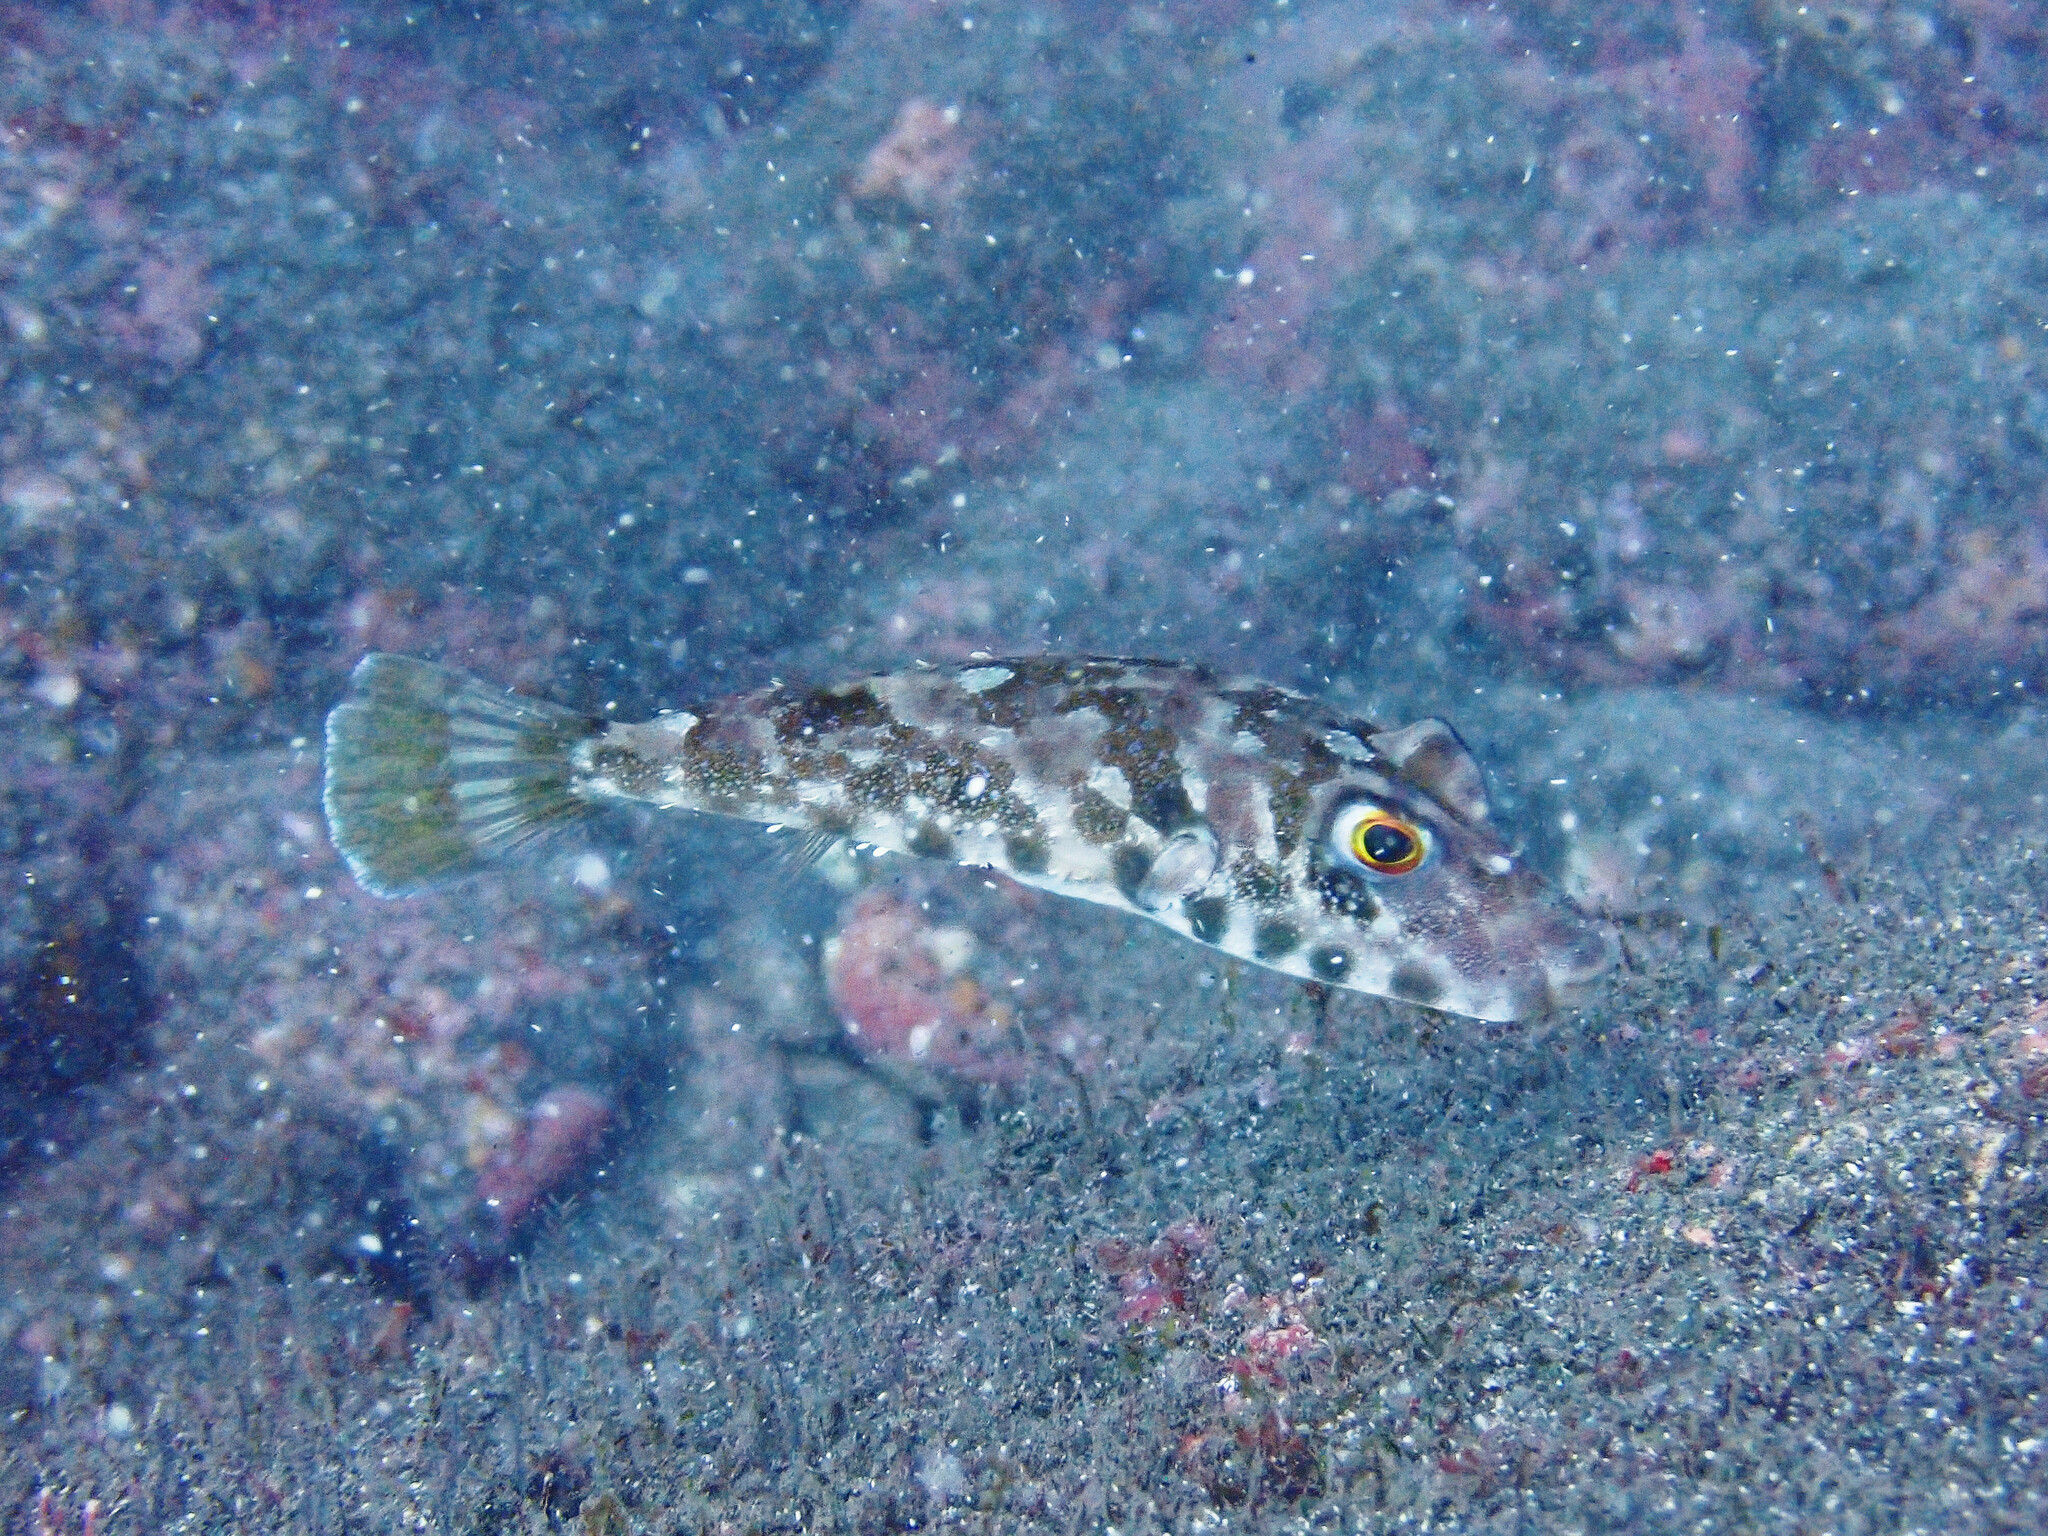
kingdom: Animalia
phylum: Chordata
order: Tetraodontiformes
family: Tetraodontidae
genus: Sphoeroides
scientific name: Sphoeroides marmoratus
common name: Guinean puffer
